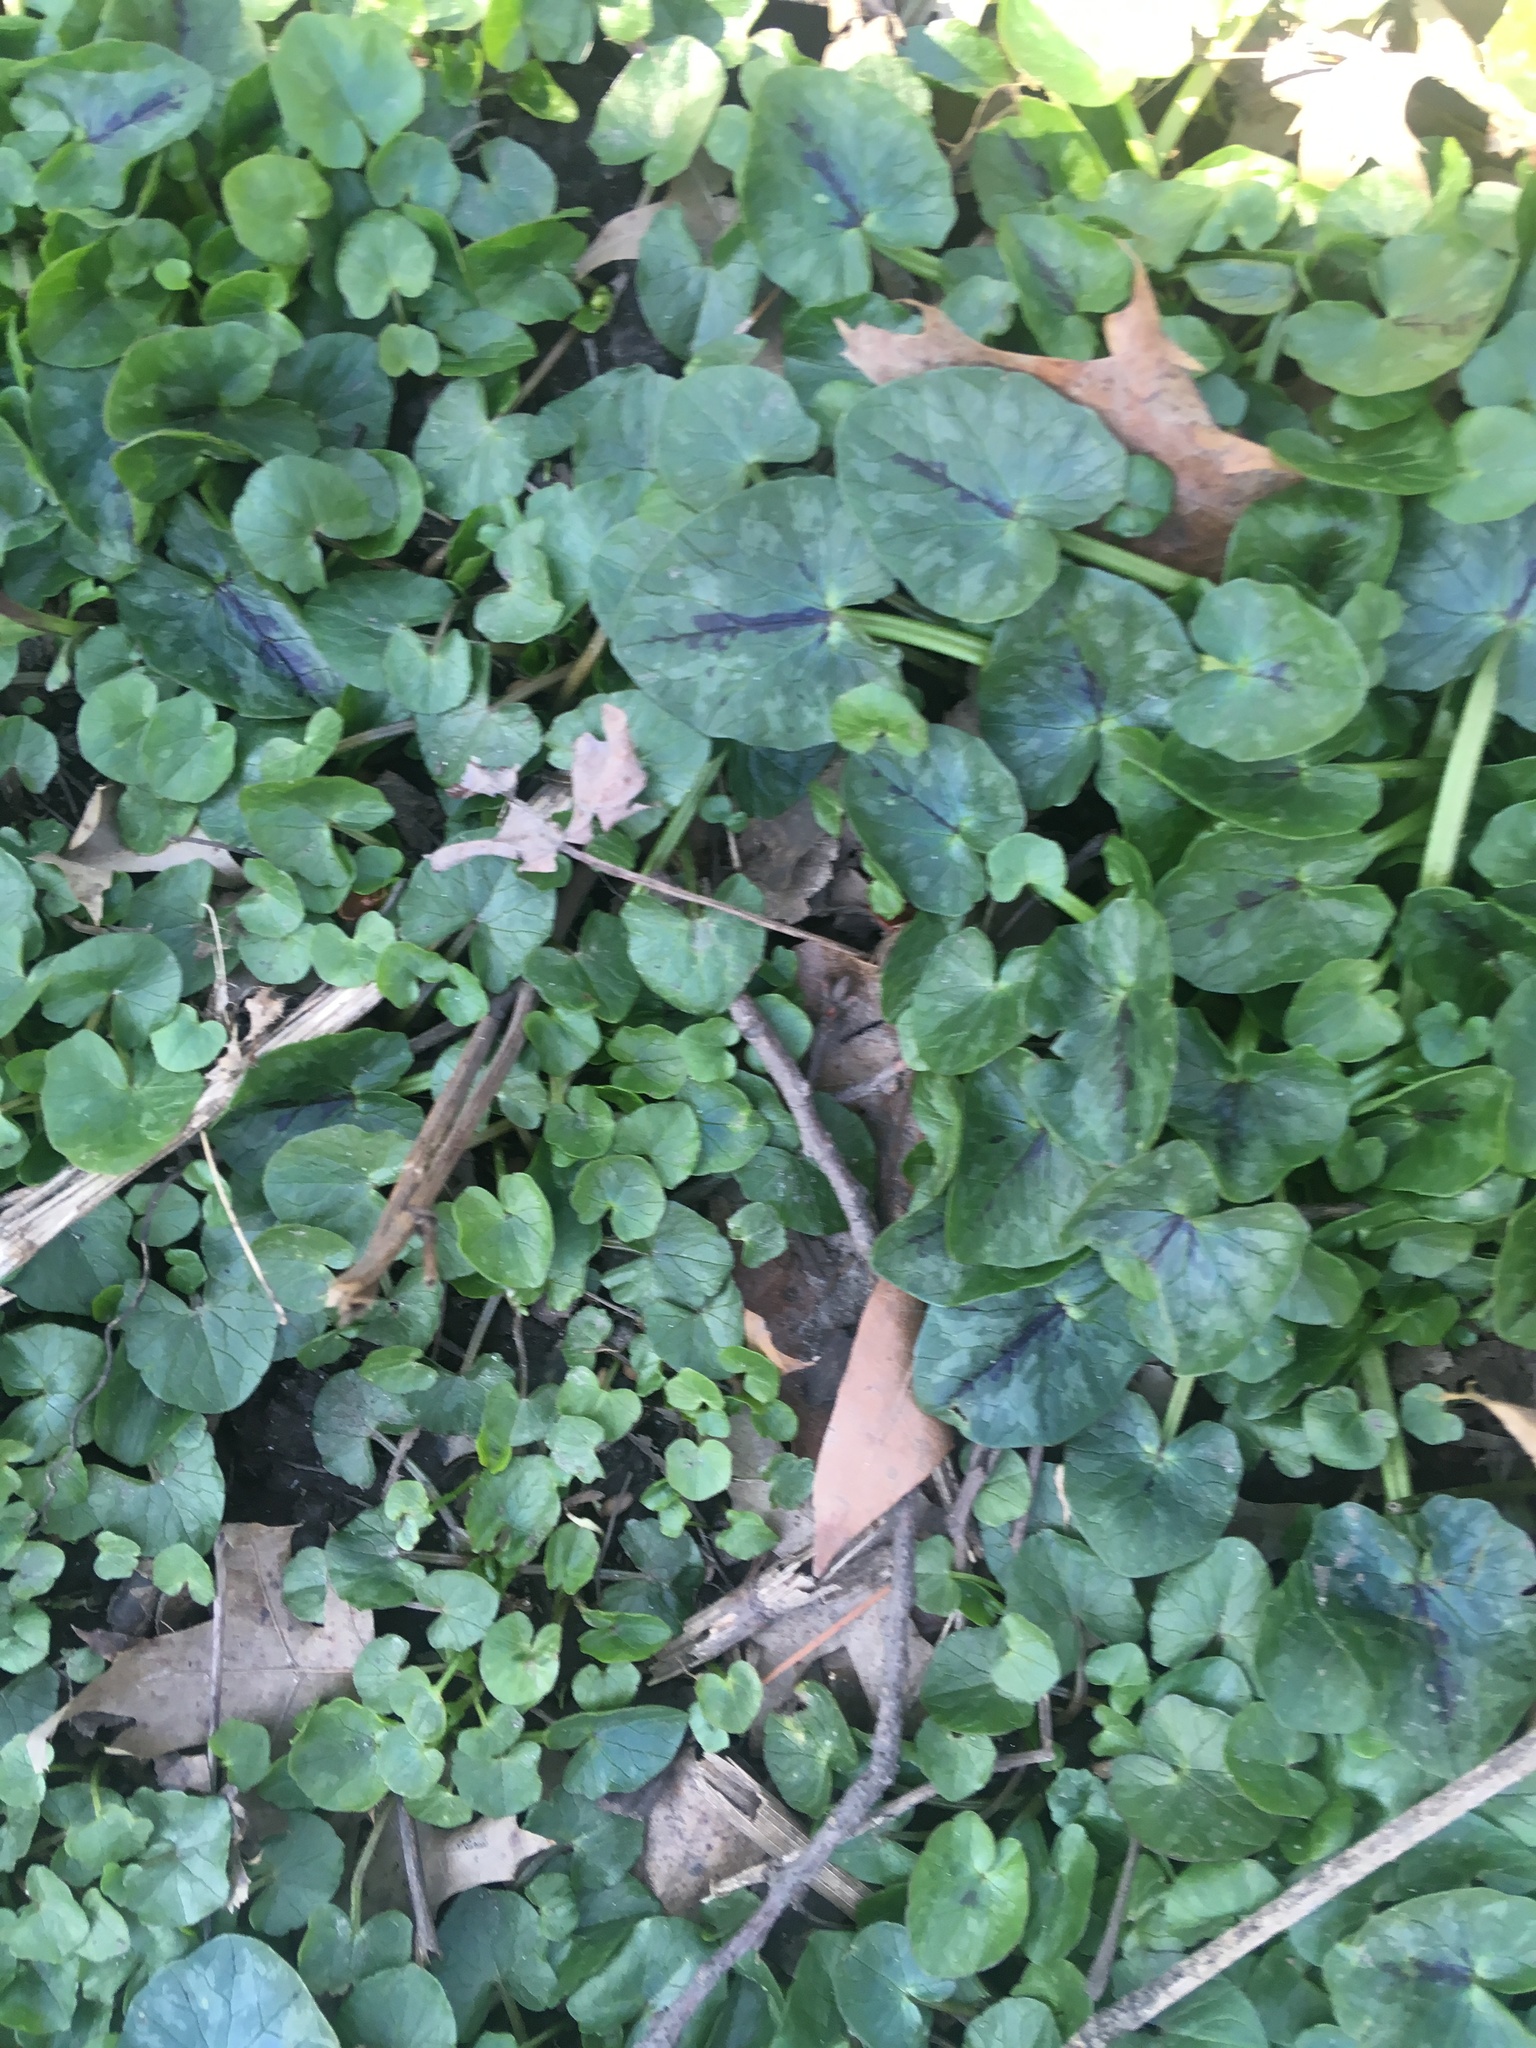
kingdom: Plantae
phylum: Tracheophyta
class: Magnoliopsida
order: Ranunculales
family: Ranunculaceae
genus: Ficaria
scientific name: Ficaria verna
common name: Lesser celandine
